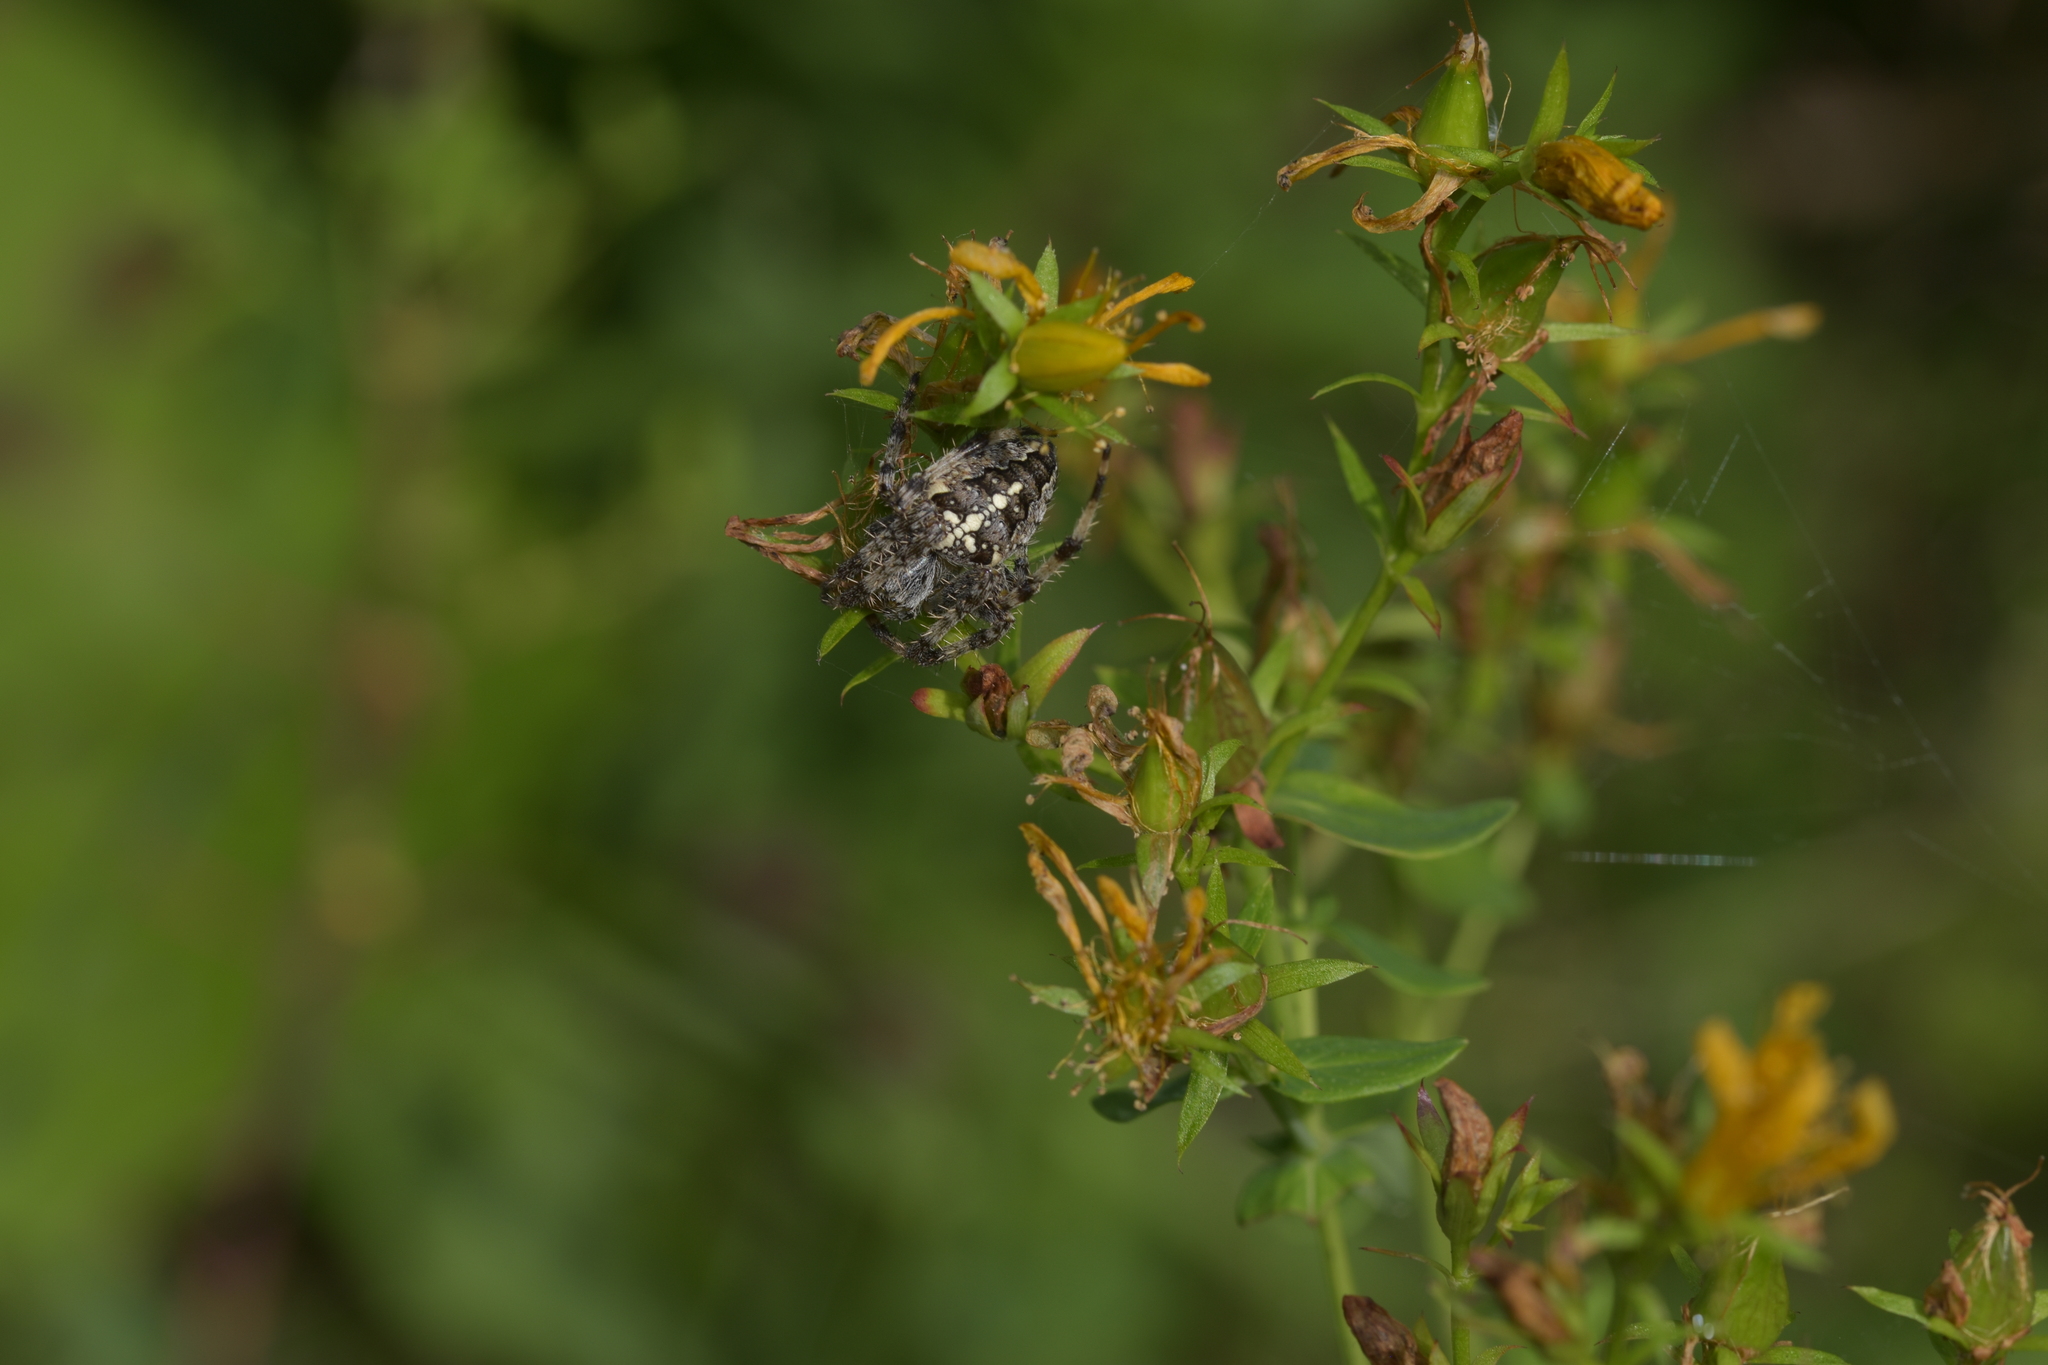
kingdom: Animalia
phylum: Arthropoda
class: Arachnida
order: Araneae
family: Araneidae
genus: Araneus
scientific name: Araneus diadematus
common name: Cross orbweaver
